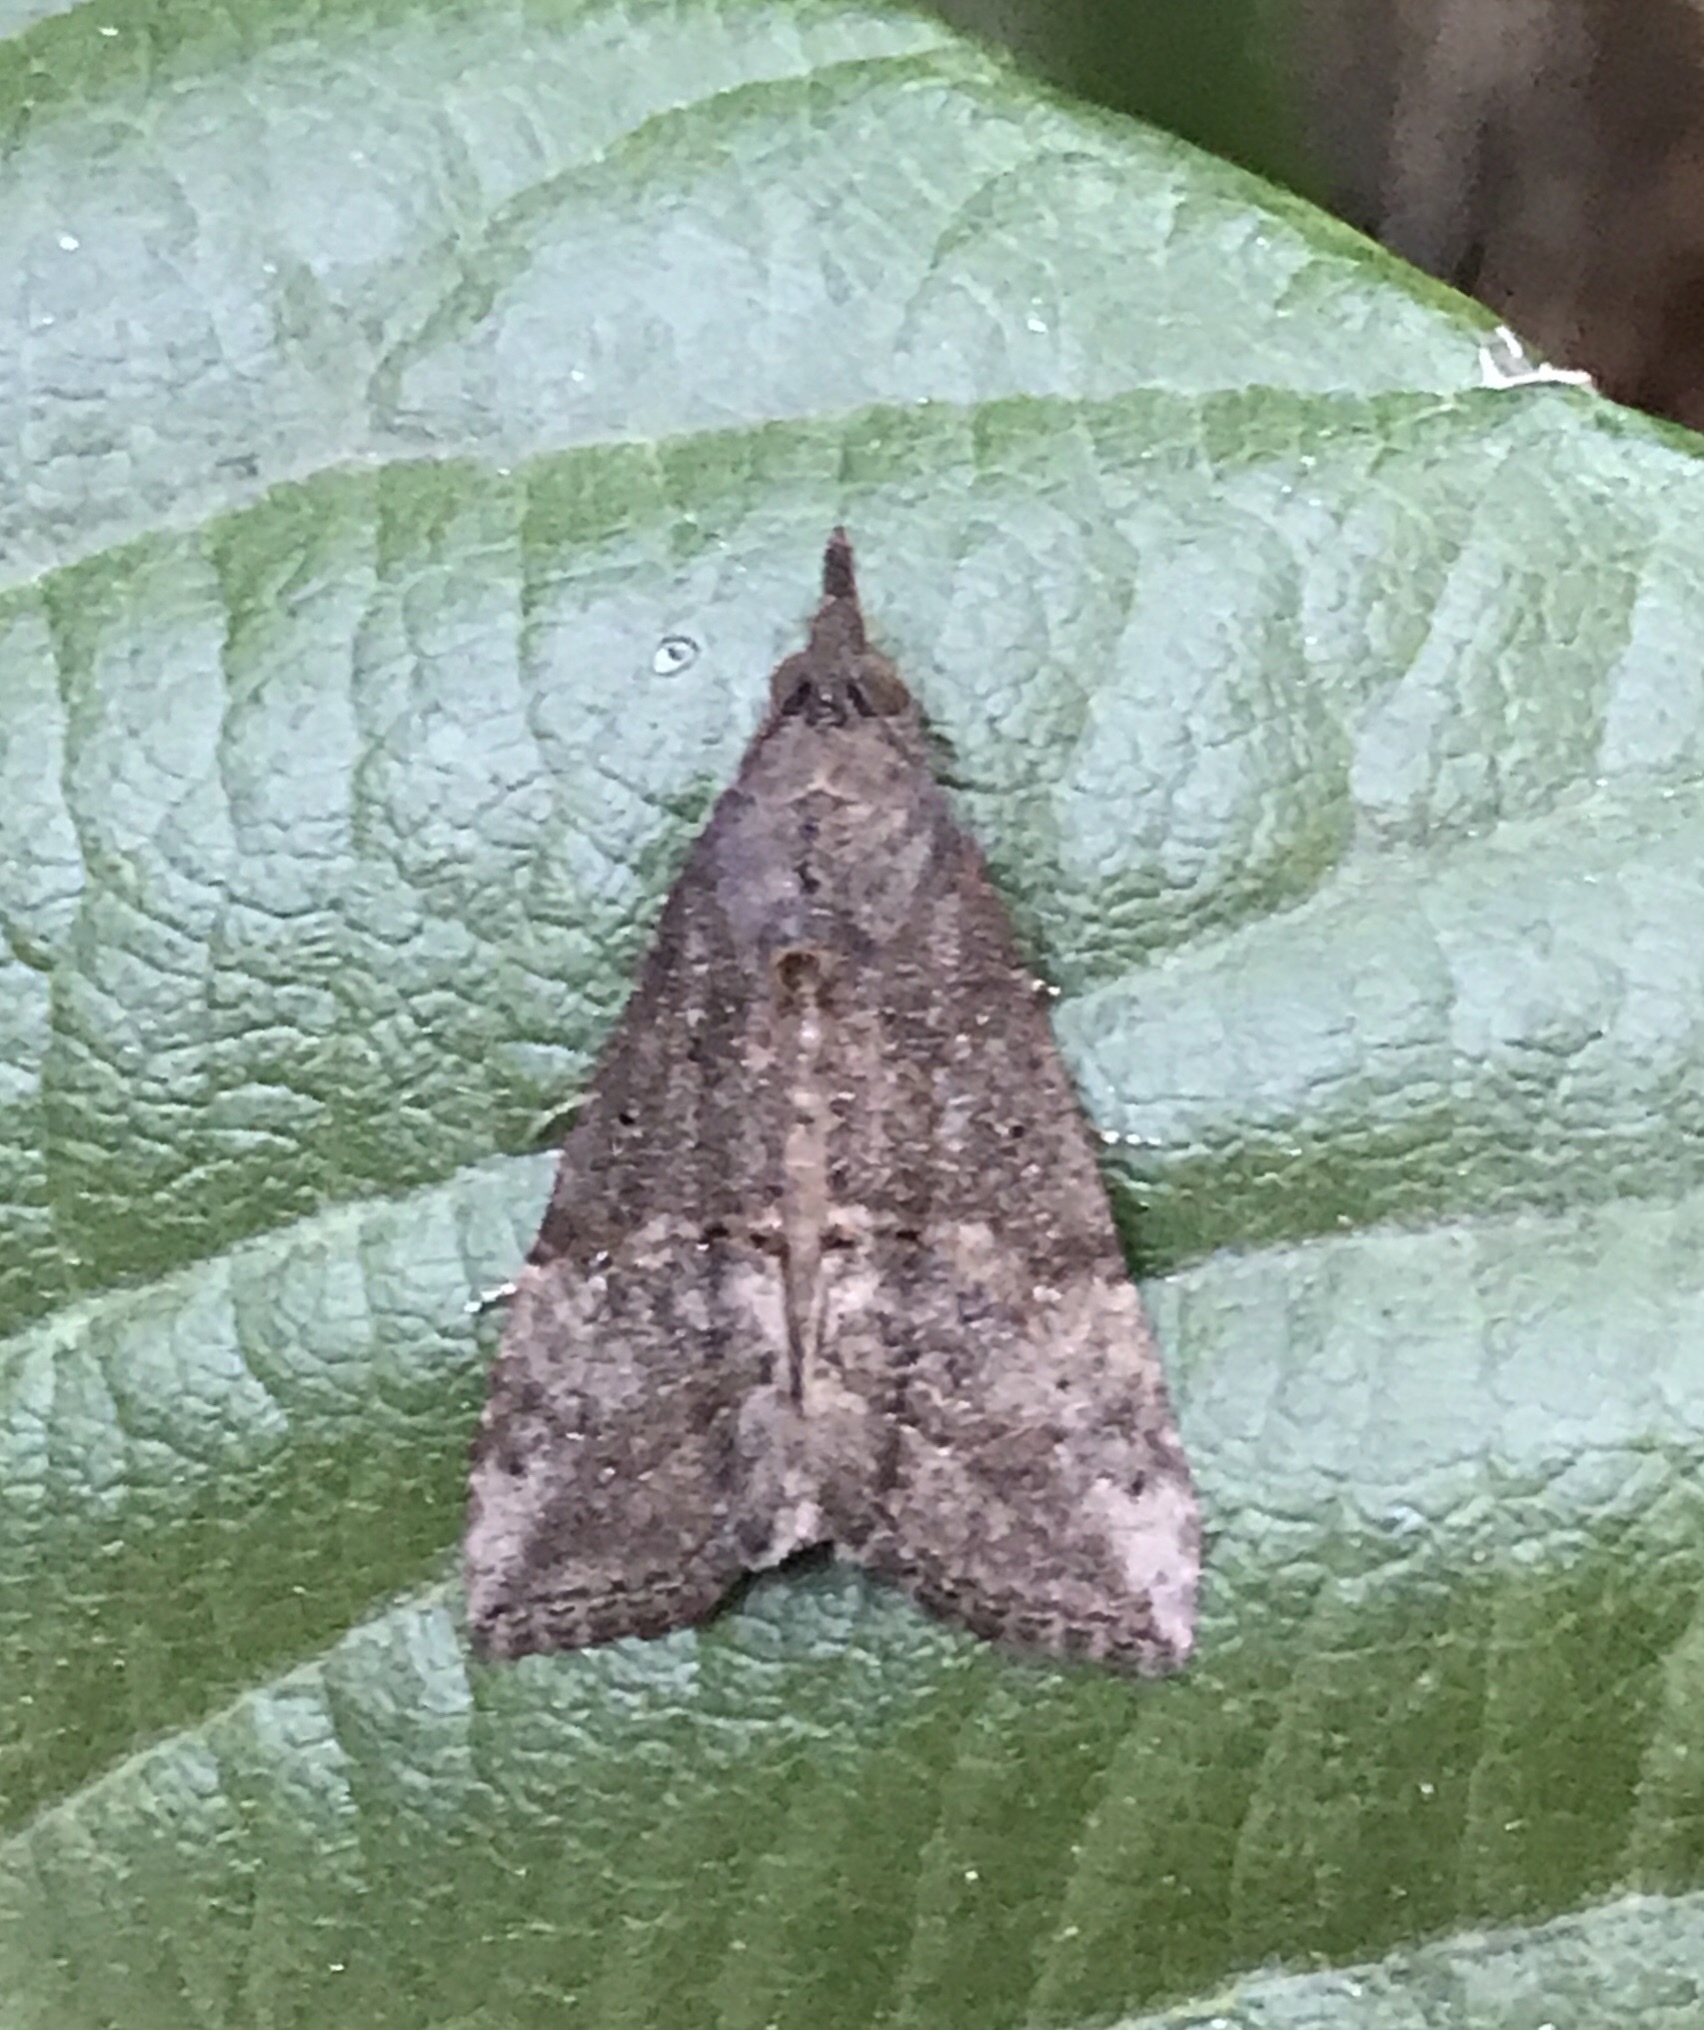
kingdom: Animalia
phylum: Arthropoda
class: Insecta
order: Lepidoptera
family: Erebidae
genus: Hypena
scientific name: Hypena scabra
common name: Green cloverworm
